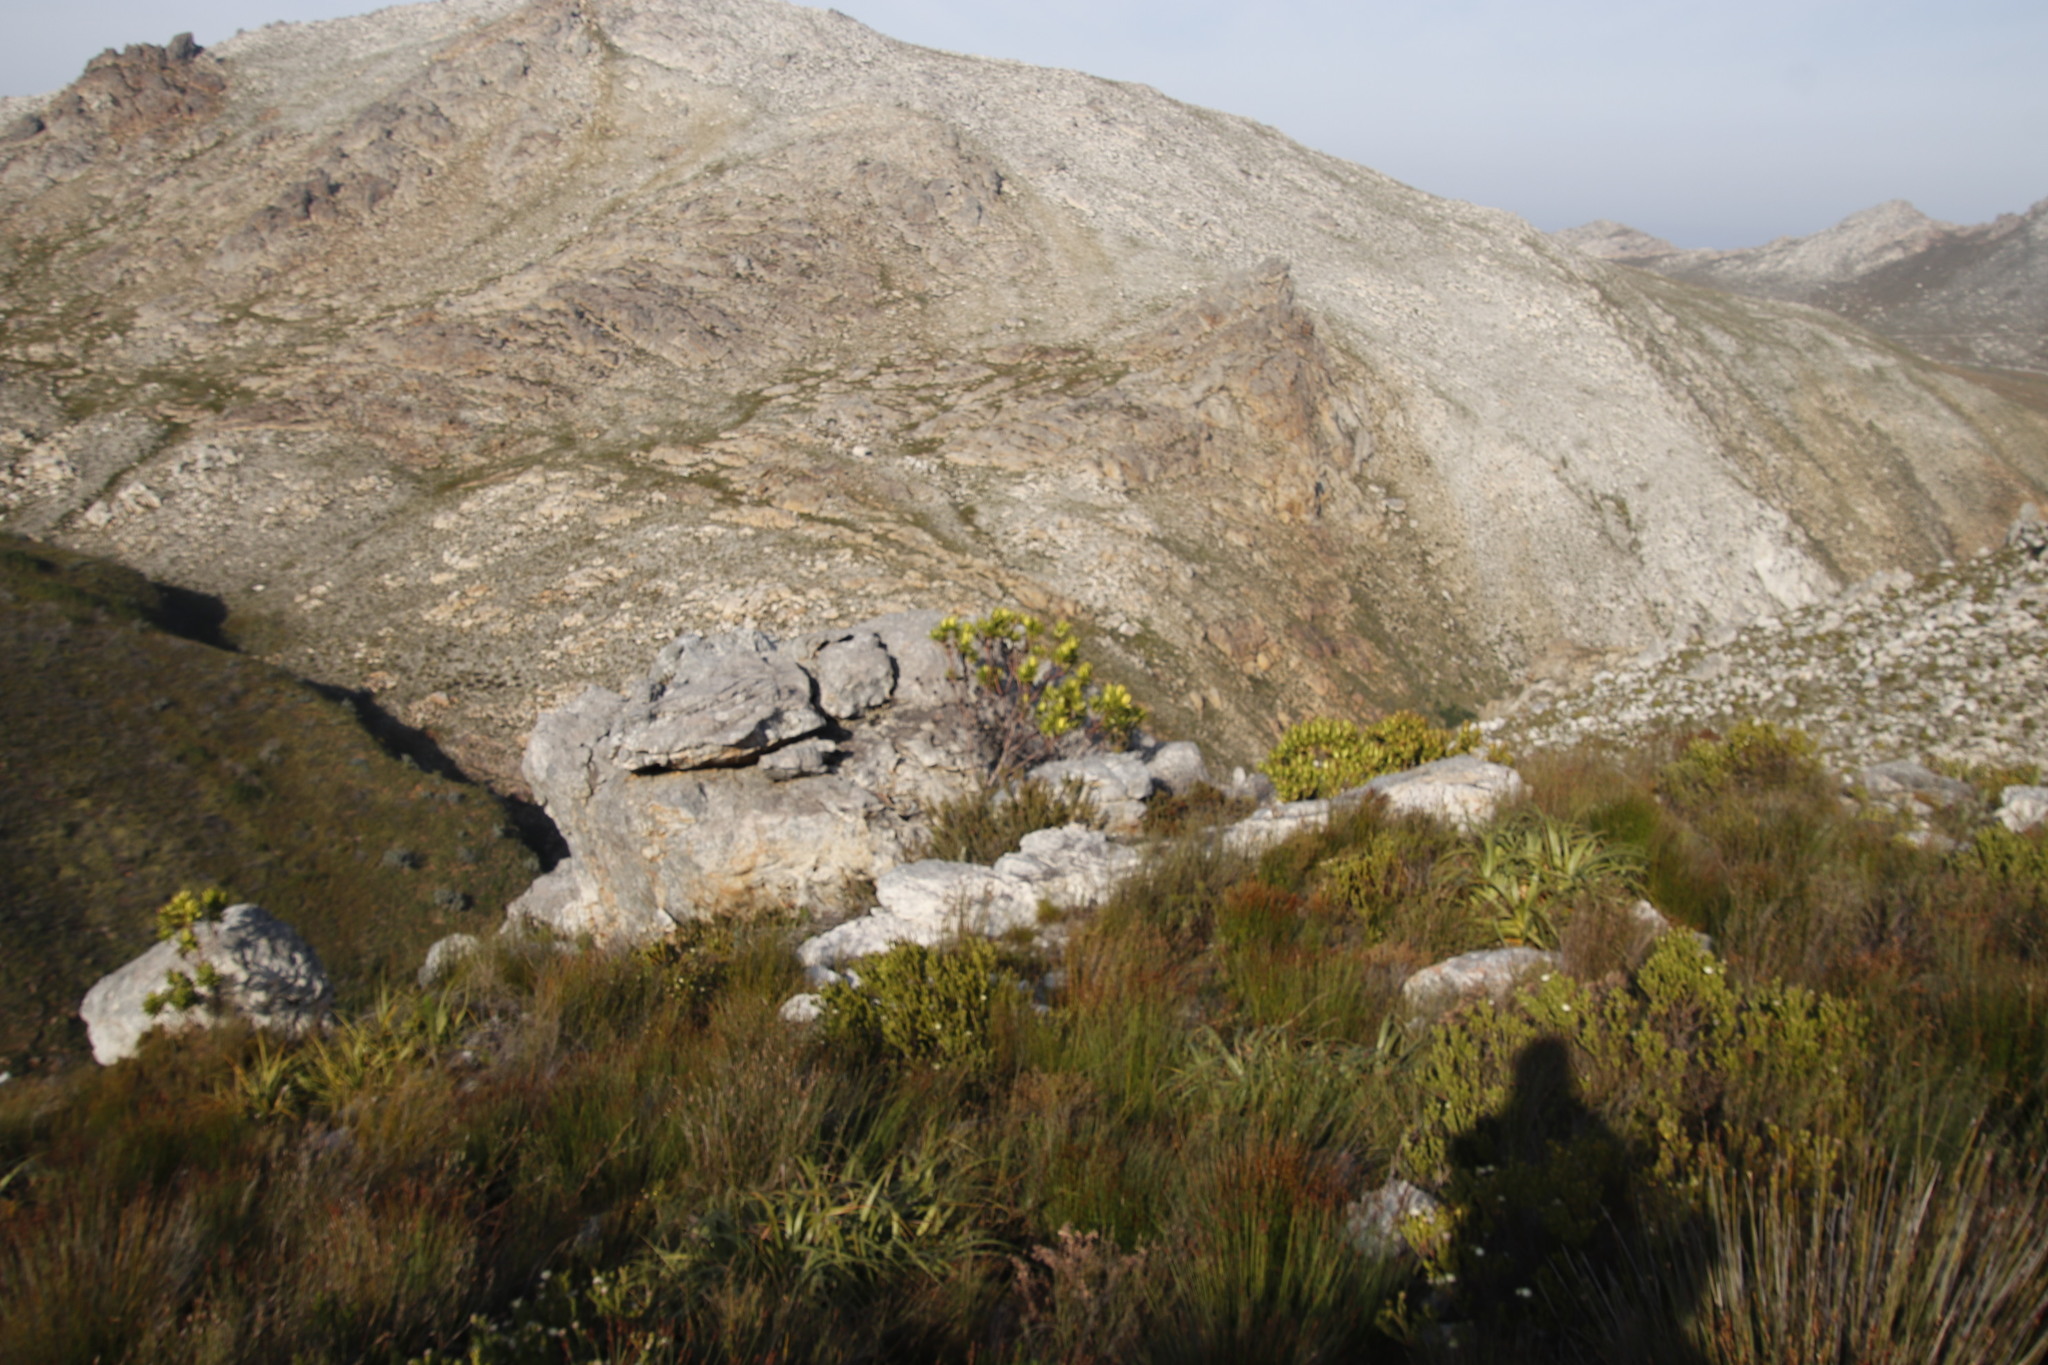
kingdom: Plantae
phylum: Tracheophyta
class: Magnoliopsida
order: Proteales
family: Proteaceae
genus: Leucadendron
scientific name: Leucadendron microcephalum
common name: Oilbract conebush
